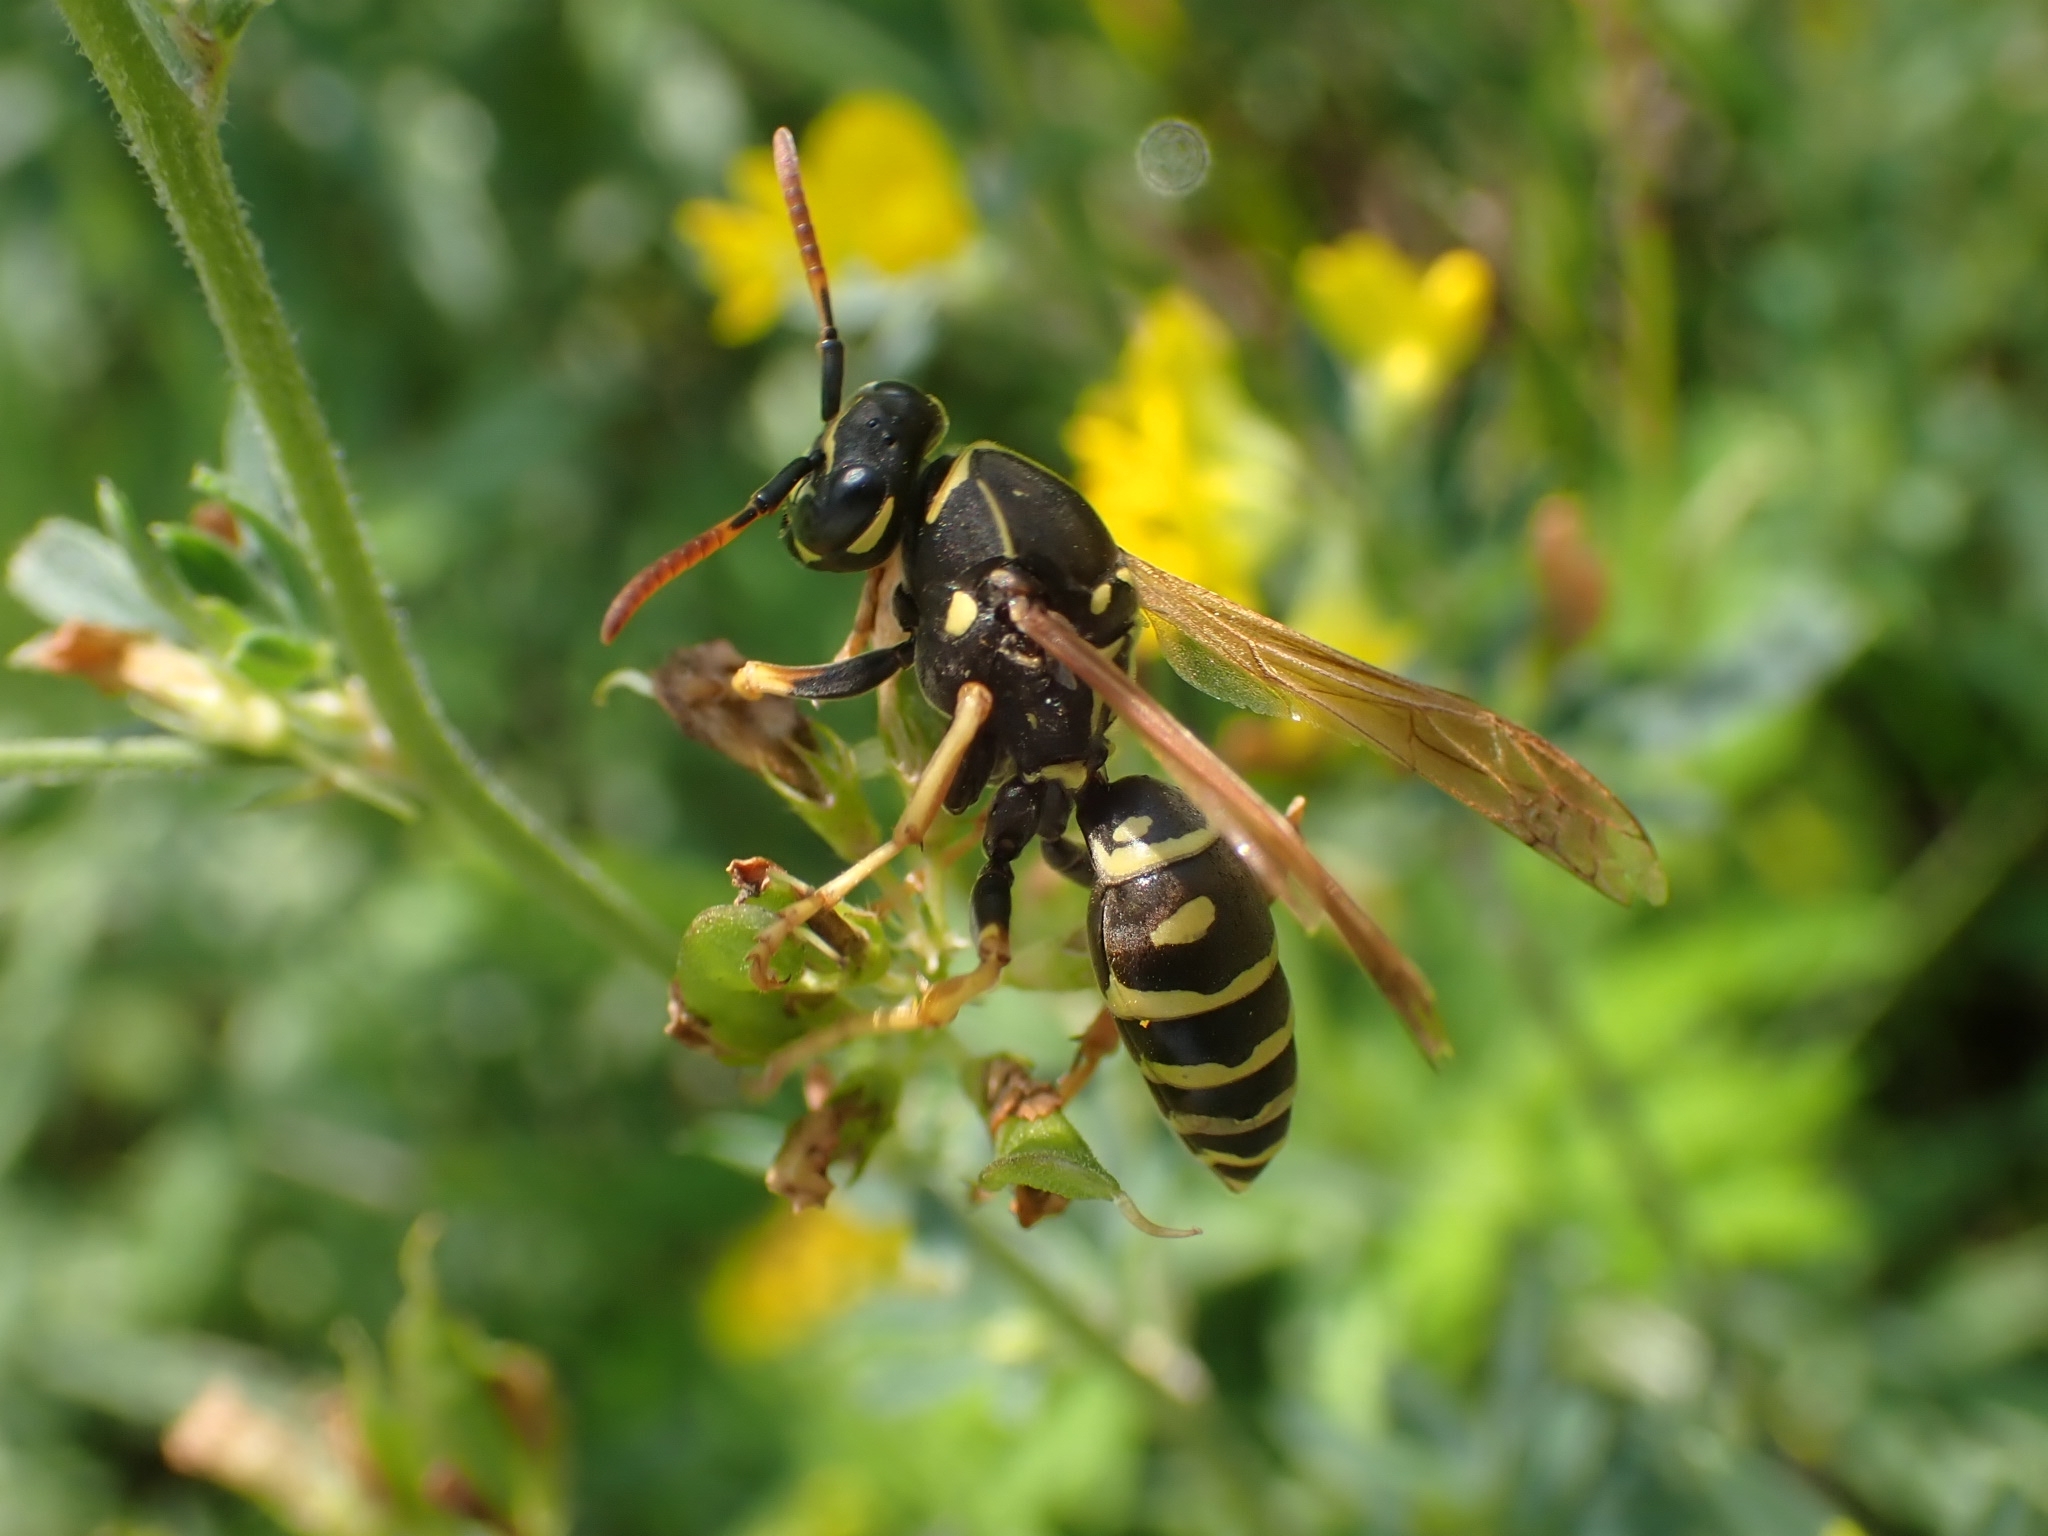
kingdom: Animalia
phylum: Arthropoda
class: Insecta
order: Hymenoptera
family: Eumenidae
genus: Polistes
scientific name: Polistes nimpha
